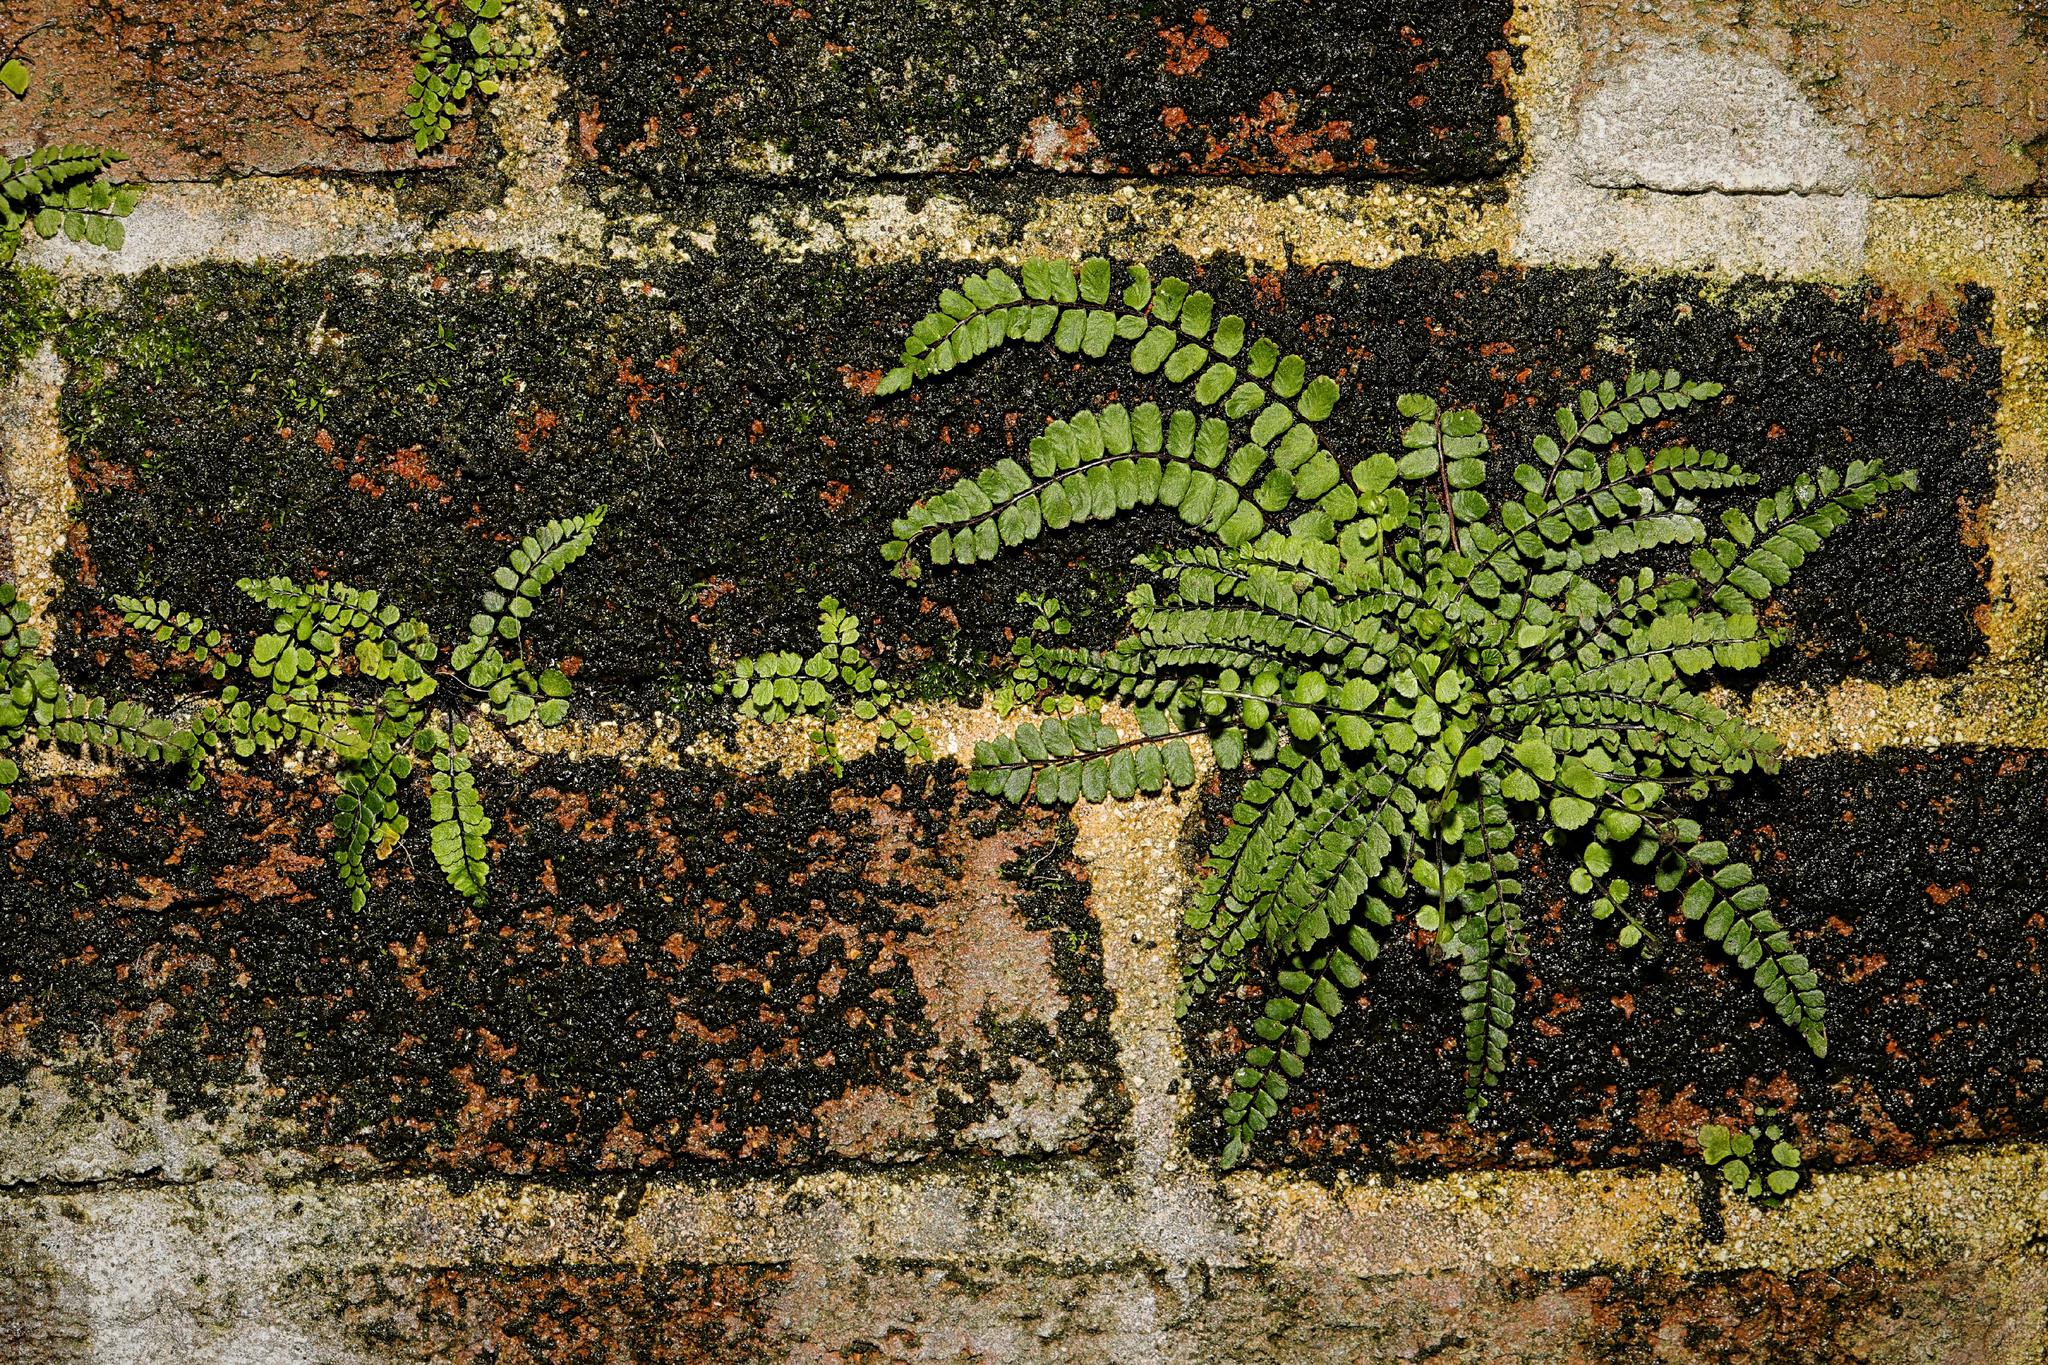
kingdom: Plantae
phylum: Tracheophyta
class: Polypodiopsida
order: Polypodiales
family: Aspleniaceae
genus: Asplenium
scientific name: Asplenium trichomanes
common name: Maidenhair spleenwort
